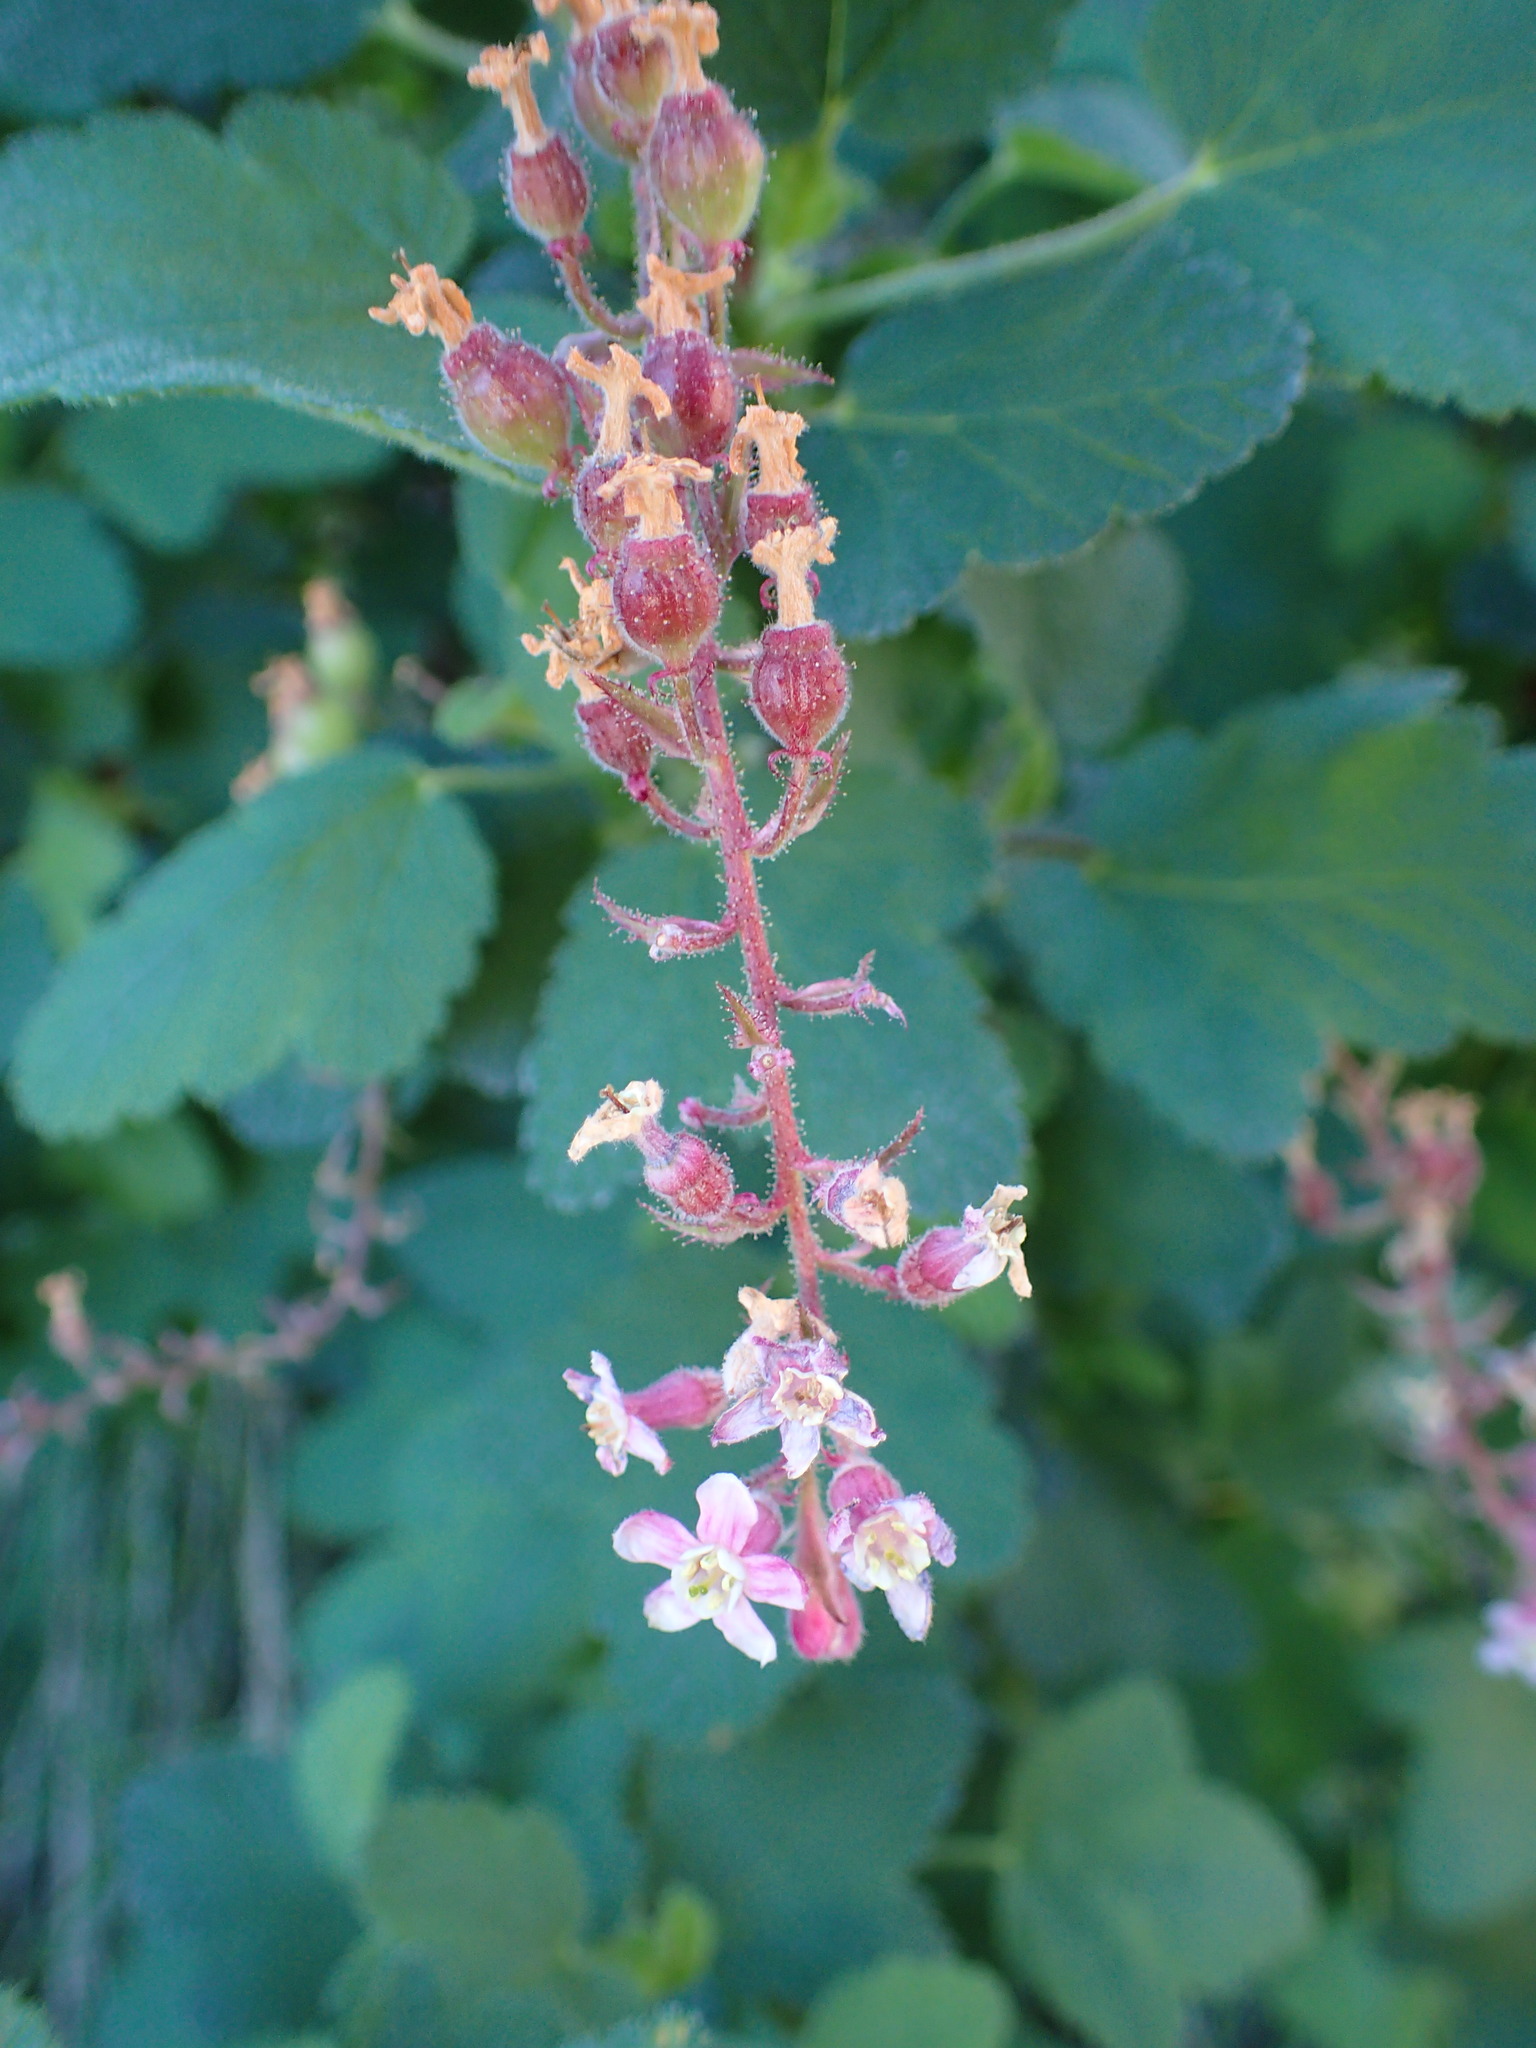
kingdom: Plantae
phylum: Tracheophyta
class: Magnoliopsida
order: Saxifragales
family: Grossulariaceae
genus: Ribes
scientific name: Ribes malvaceum
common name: Chaparral currant
